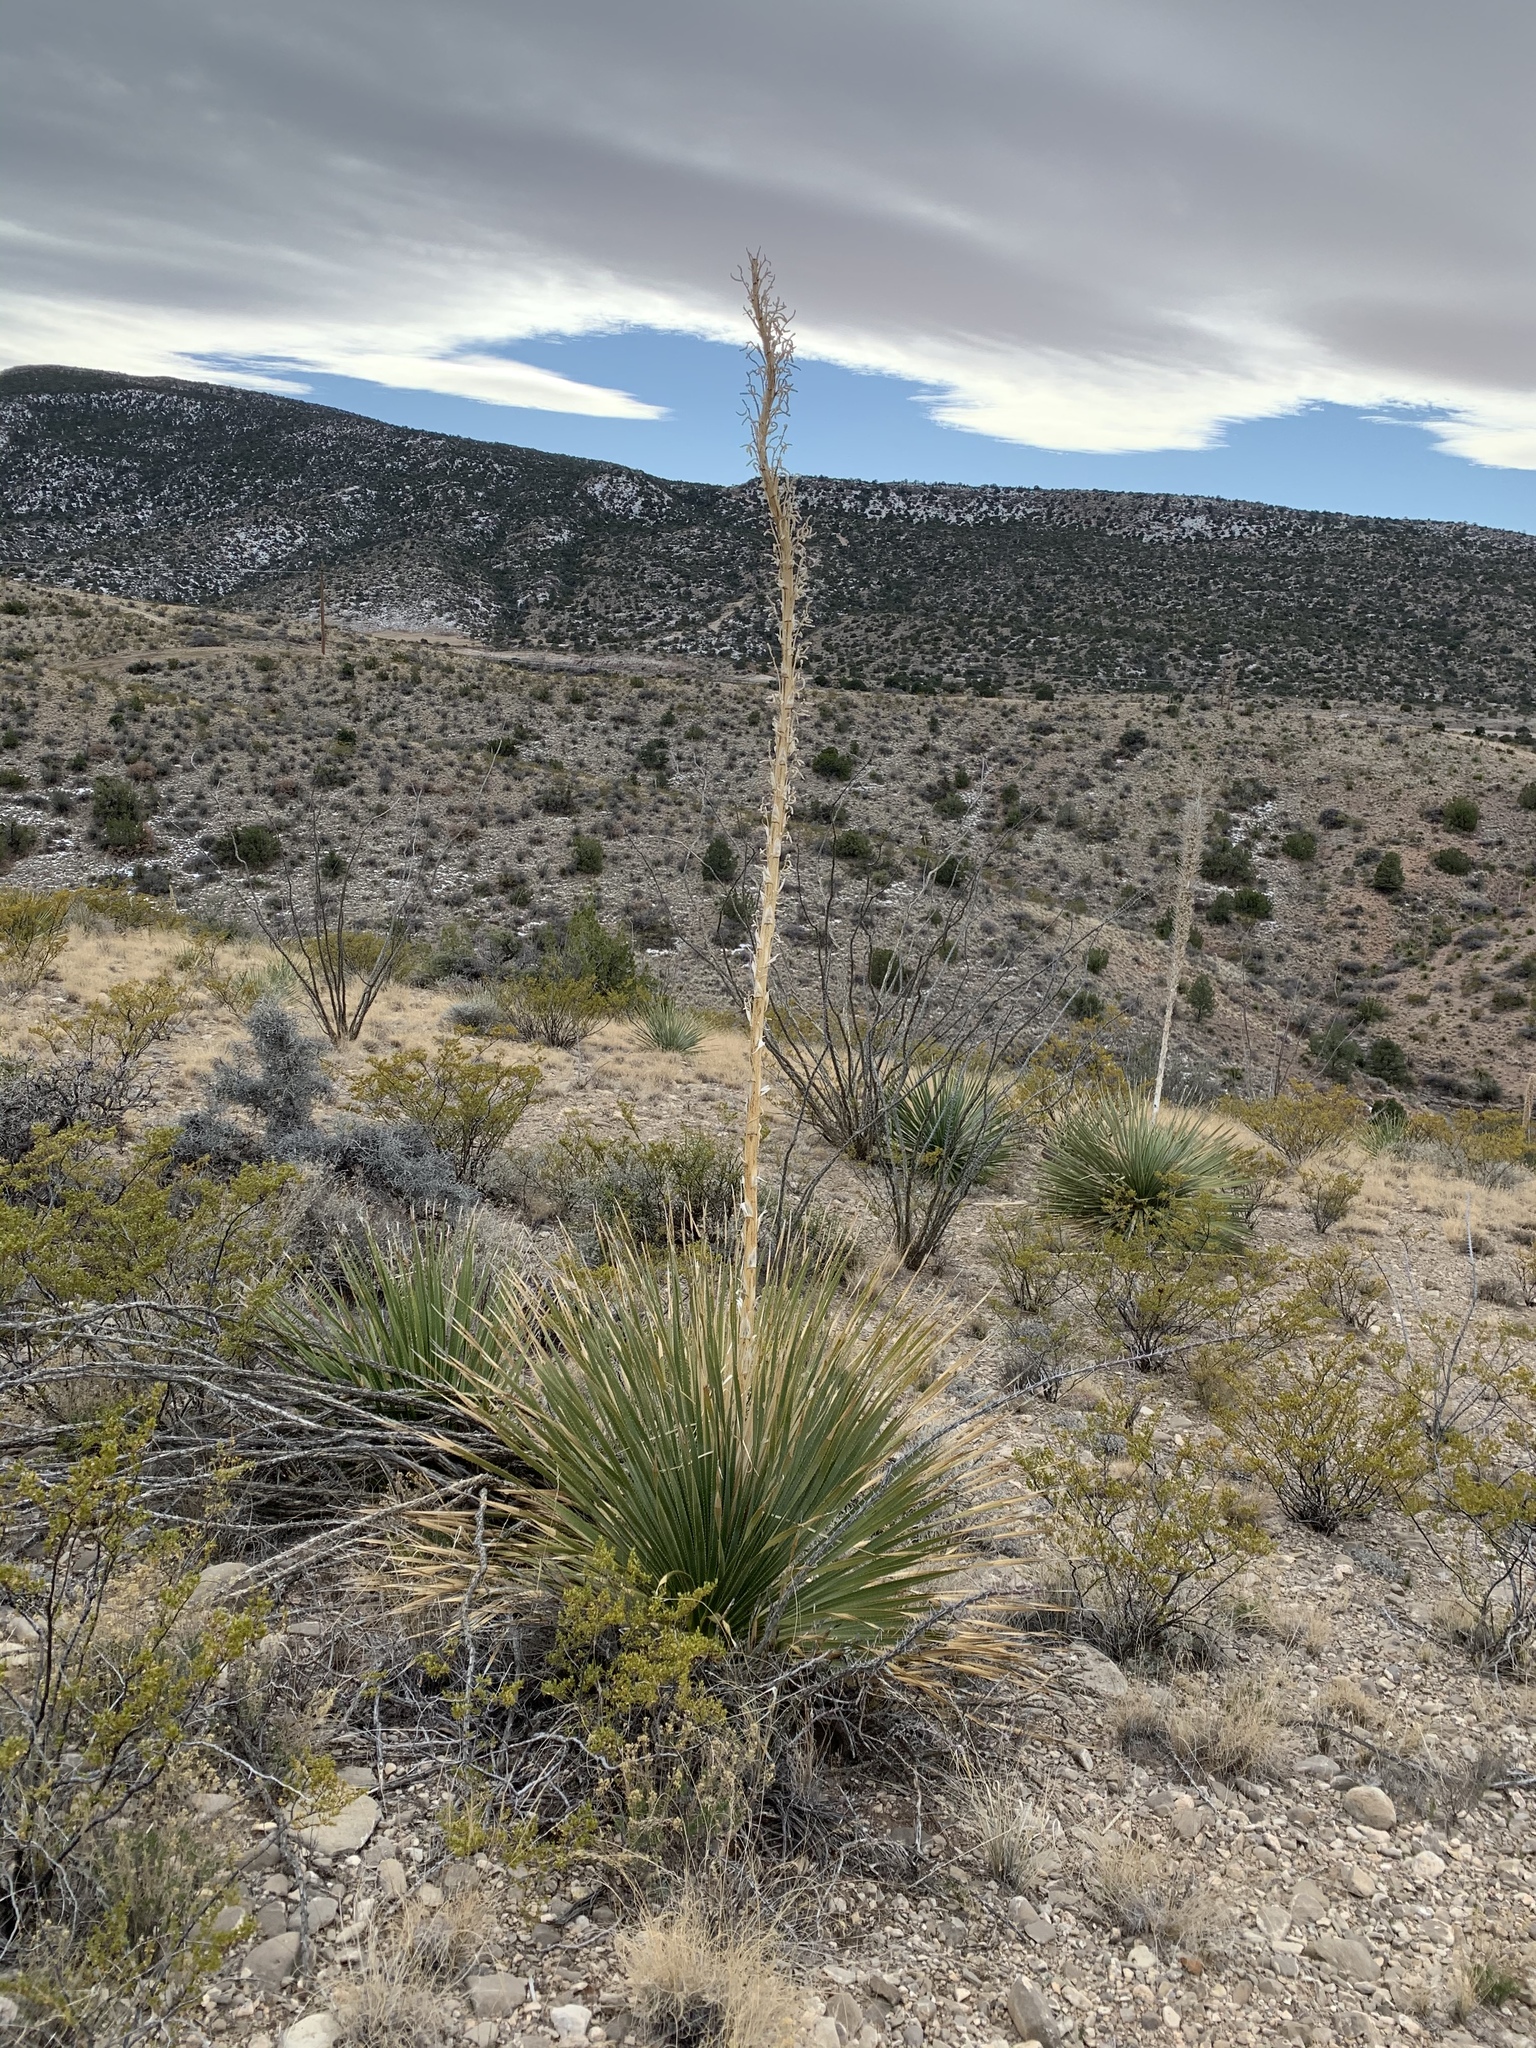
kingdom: Plantae
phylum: Tracheophyta
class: Liliopsida
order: Asparagales
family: Asparagaceae
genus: Dasylirion
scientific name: Dasylirion wheeleri
